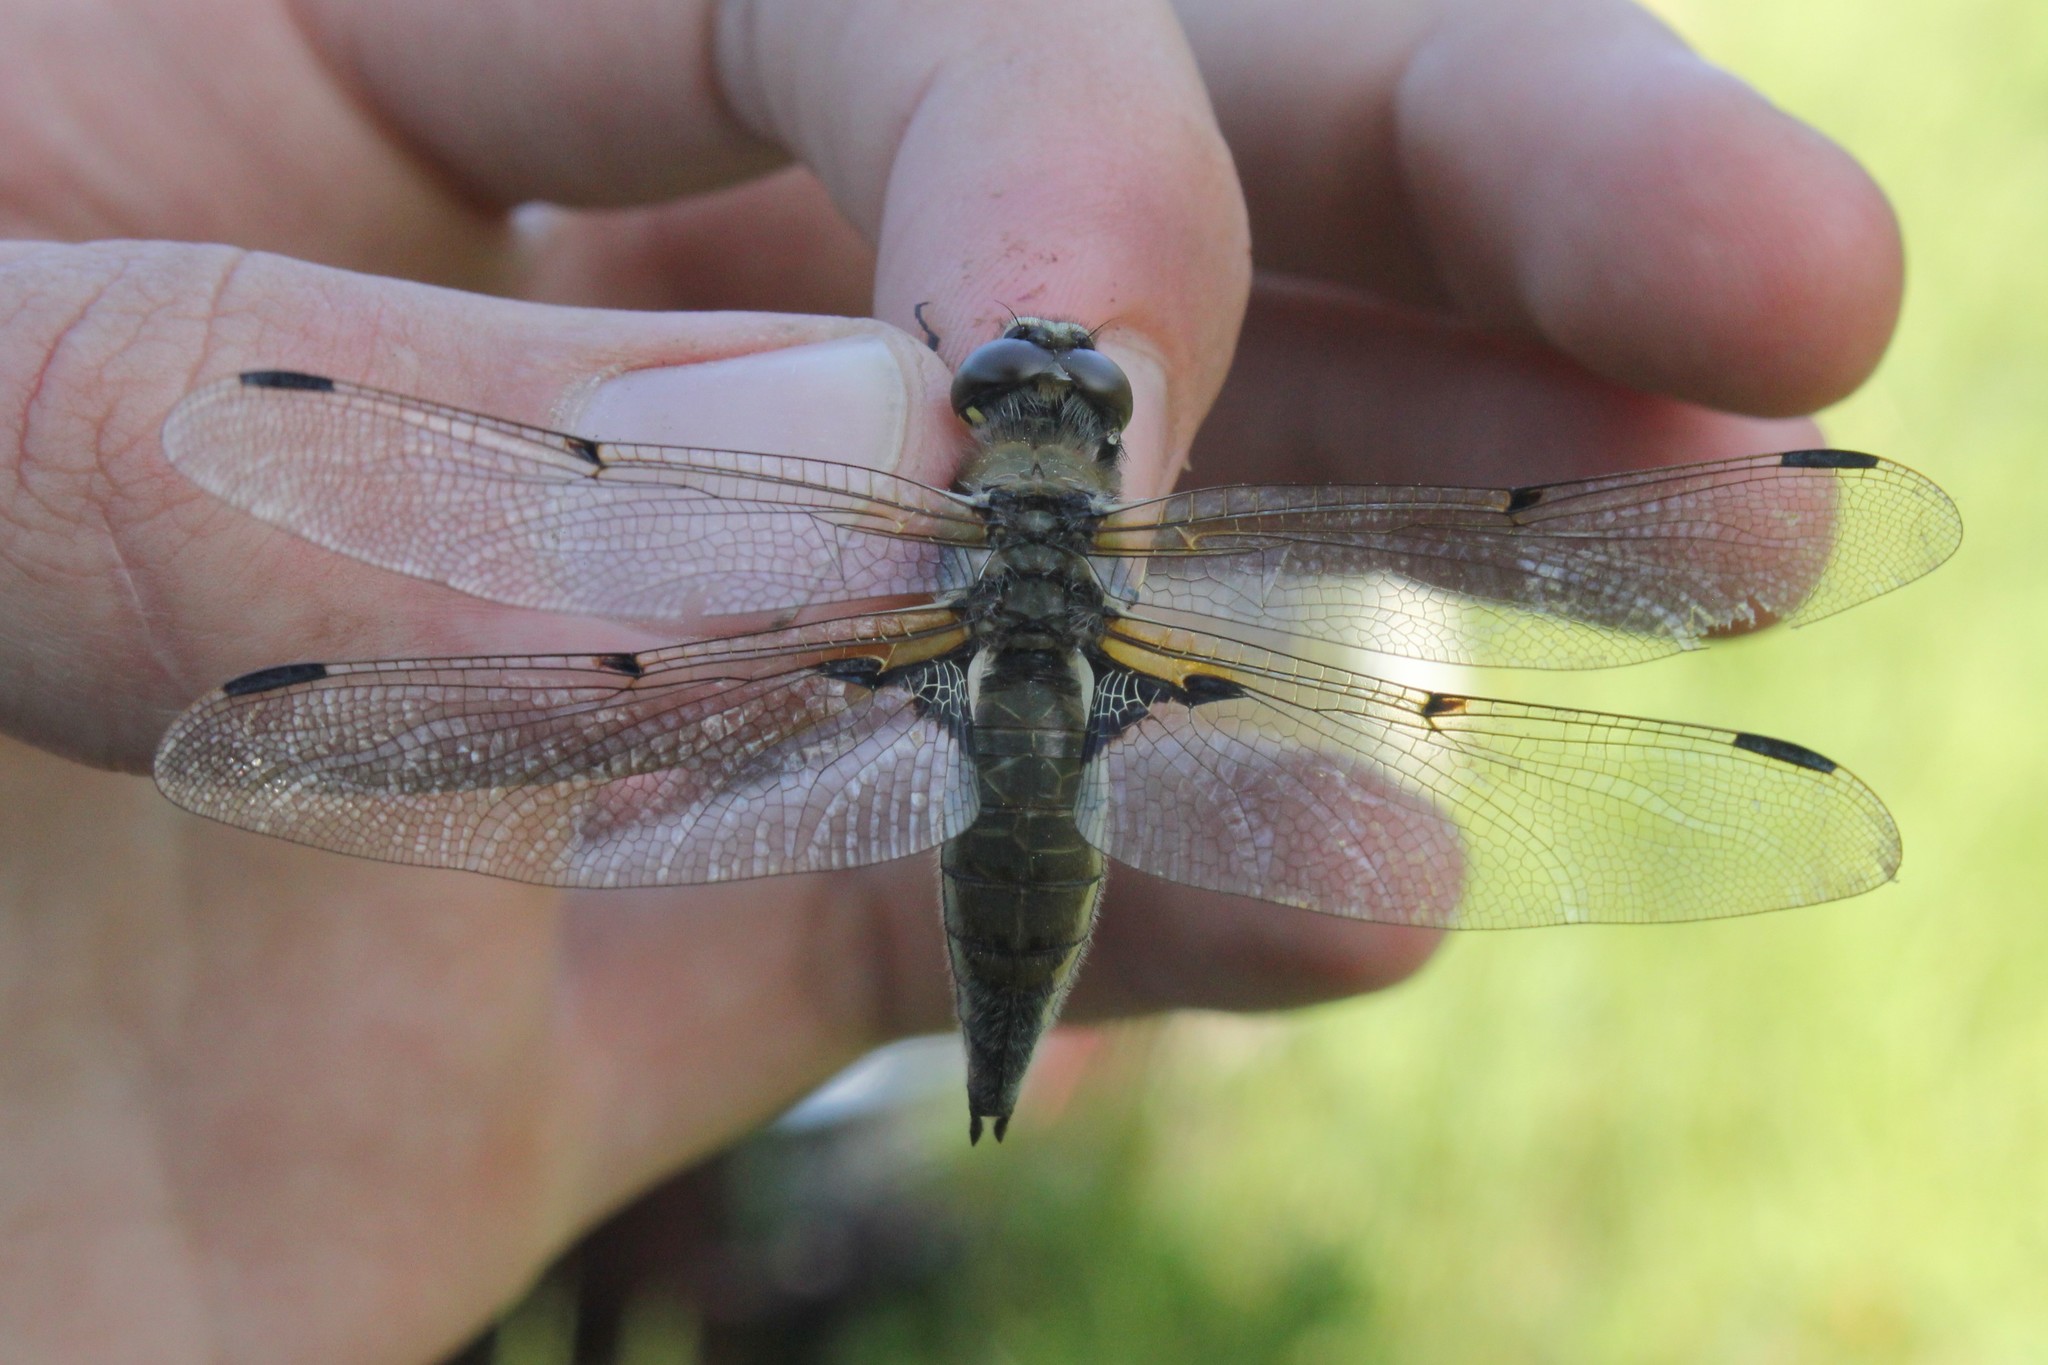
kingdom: Animalia
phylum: Arthropoda
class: Insecta
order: Odonata
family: Libellulidae
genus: Libellula
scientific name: Libellula quadrimaculata
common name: Four-spotted chaser
